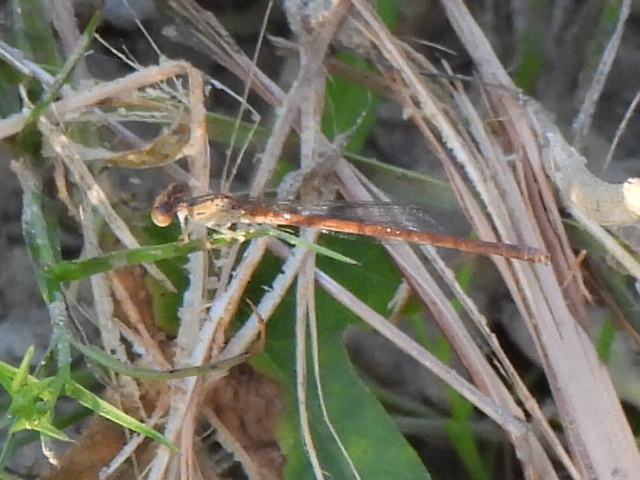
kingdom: Animalia
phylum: Arthropoda
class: Insecta
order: Odonata
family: Coenagrionidae
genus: Telebasis
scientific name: Telebasis salva
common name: Desert firetail
